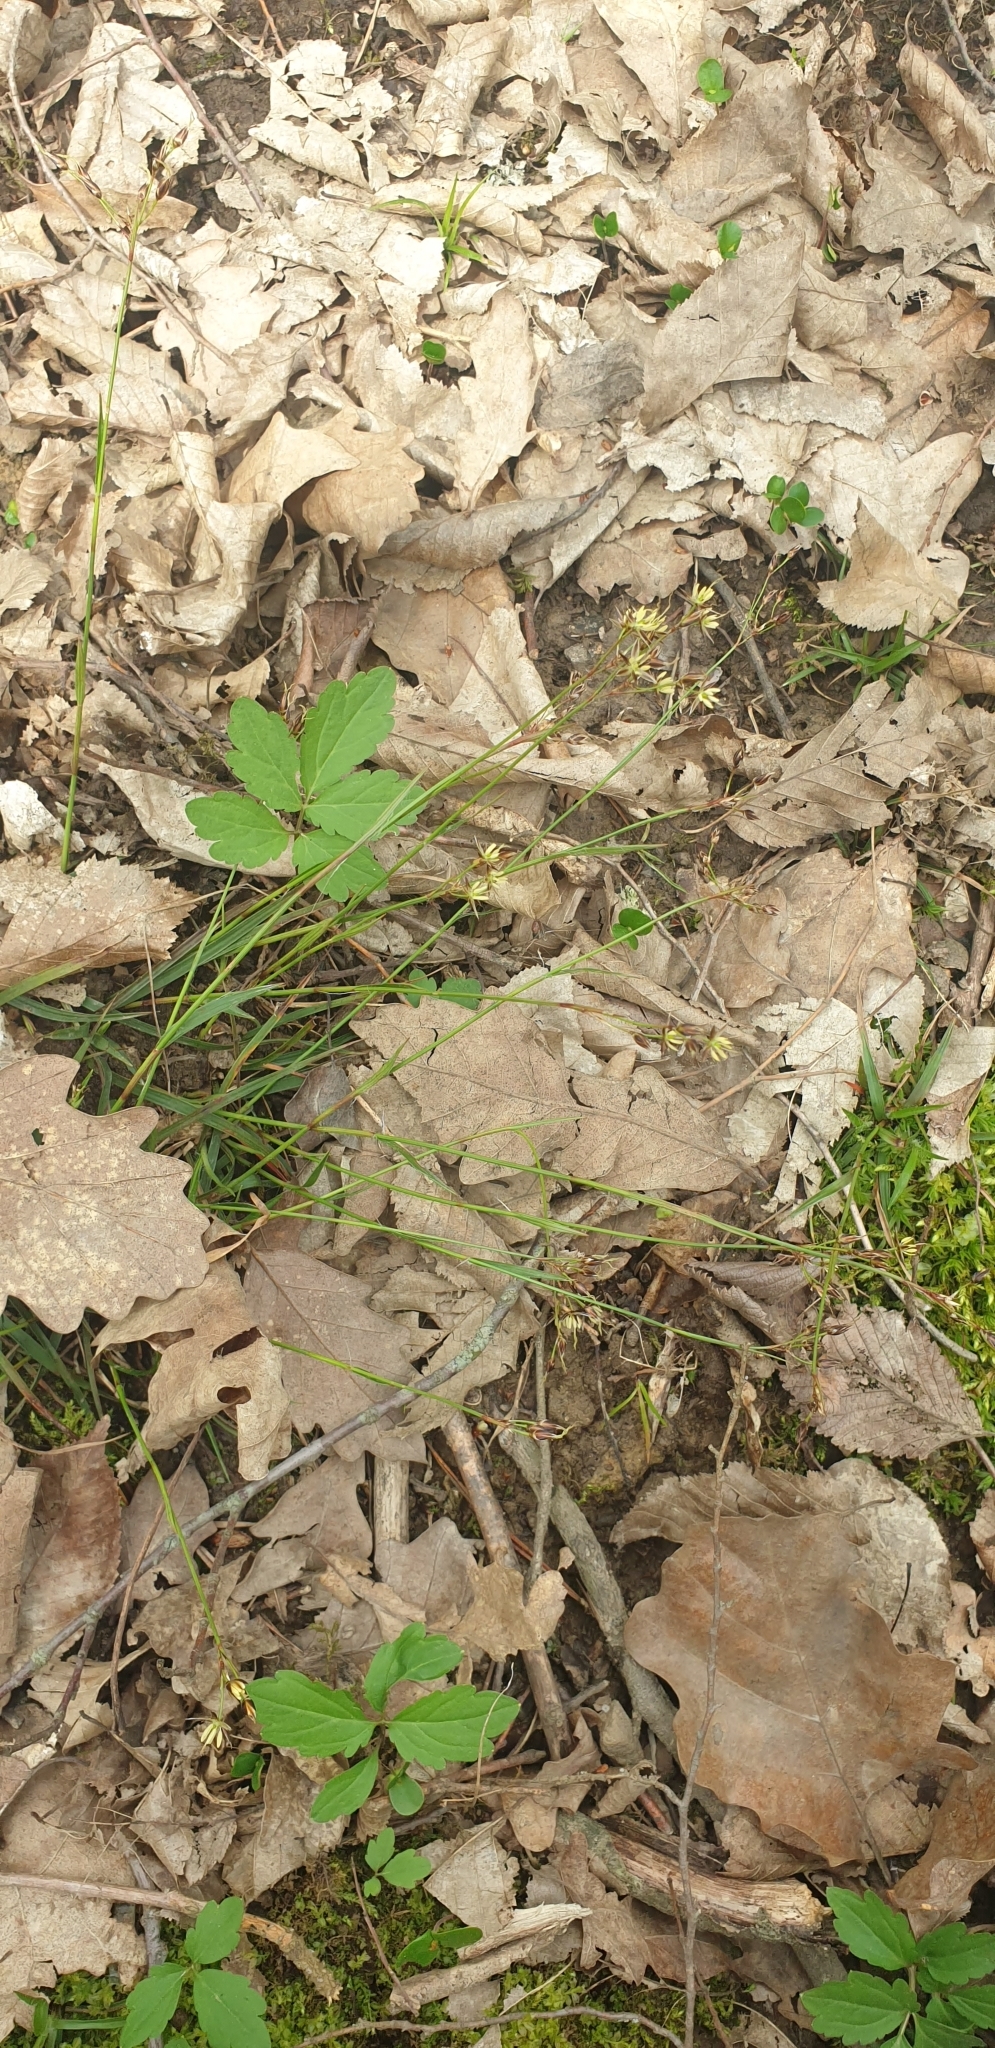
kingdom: Plantae
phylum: Tracheophyta
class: Liliopsida
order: Poales
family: Juncaceae
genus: Luzula
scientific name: Luzula forsteri
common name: Southern wood-rush
